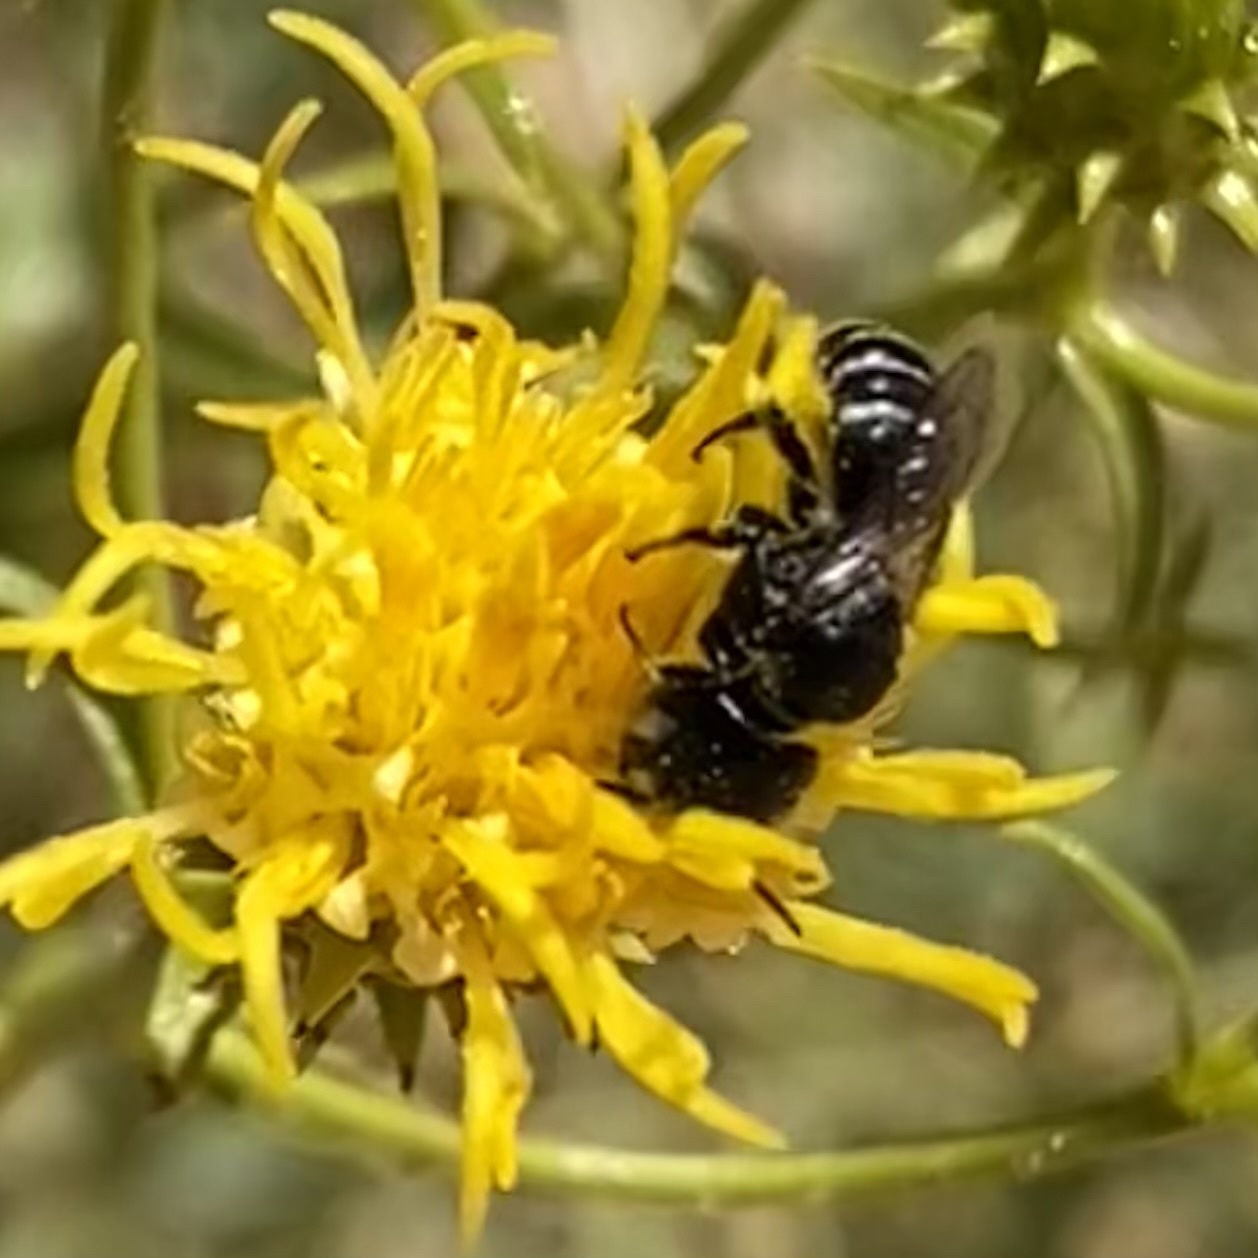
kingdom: Animalia
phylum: Arthropoda
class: Insecta
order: Hymenoptera
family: Megachilidae
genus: Ashmeadiella
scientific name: Ashmeadiella
